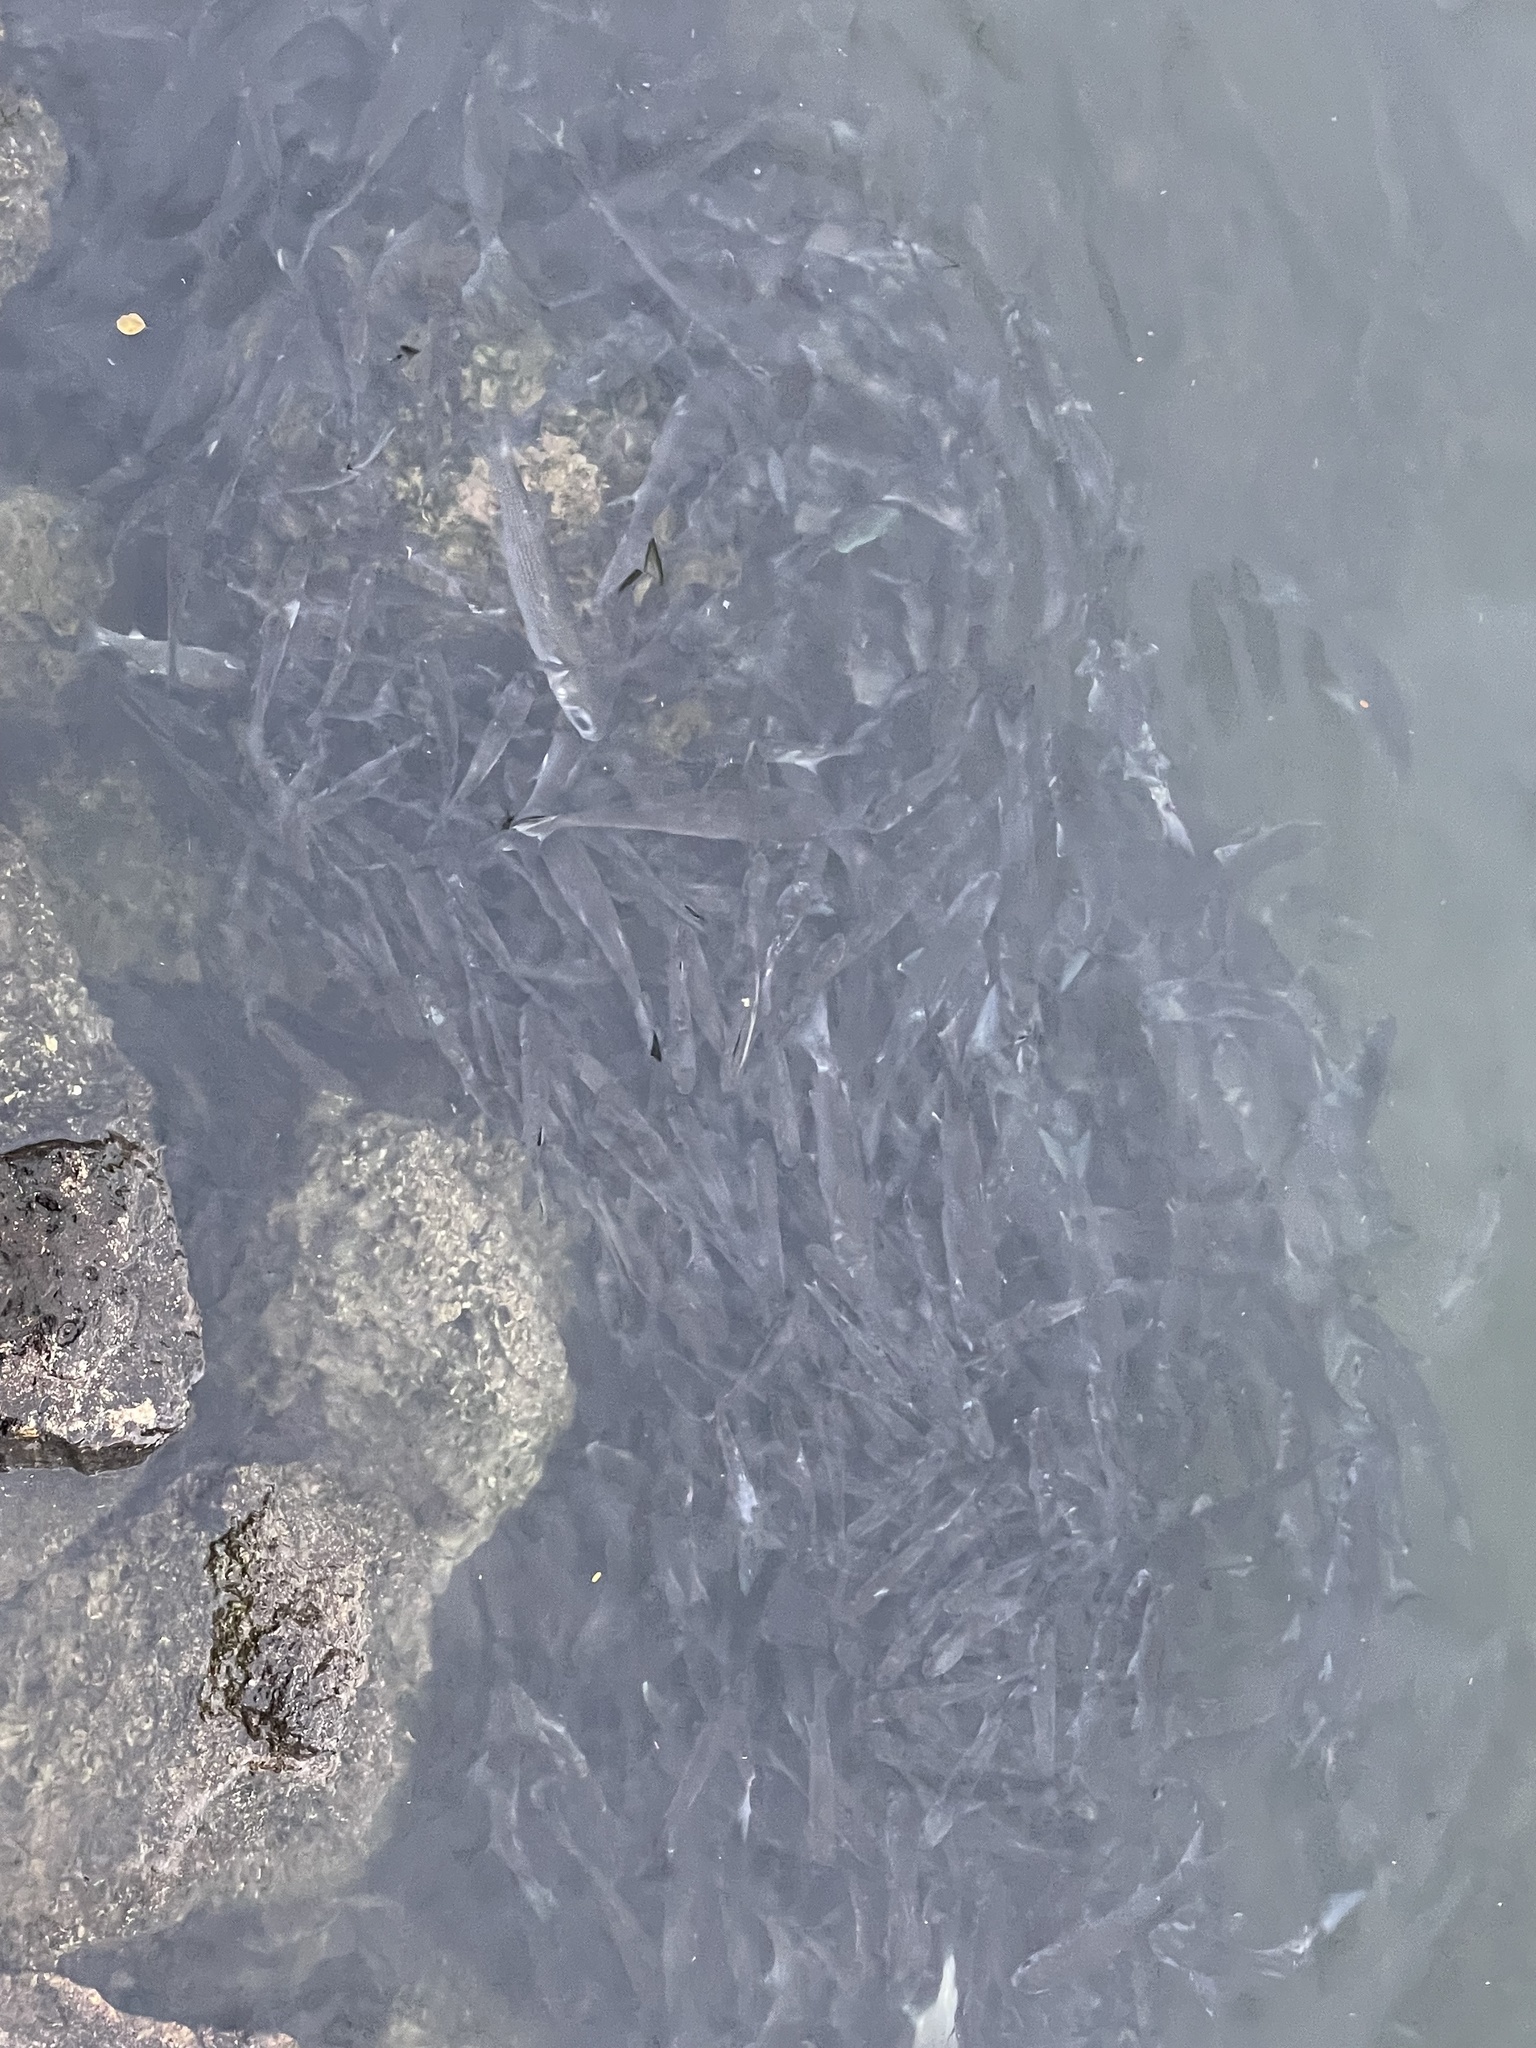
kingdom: Animalia
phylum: Chordata
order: Mugiliformes
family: Mugilidae
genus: Mugil
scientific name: Mugil cephalus
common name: Grey mullet
